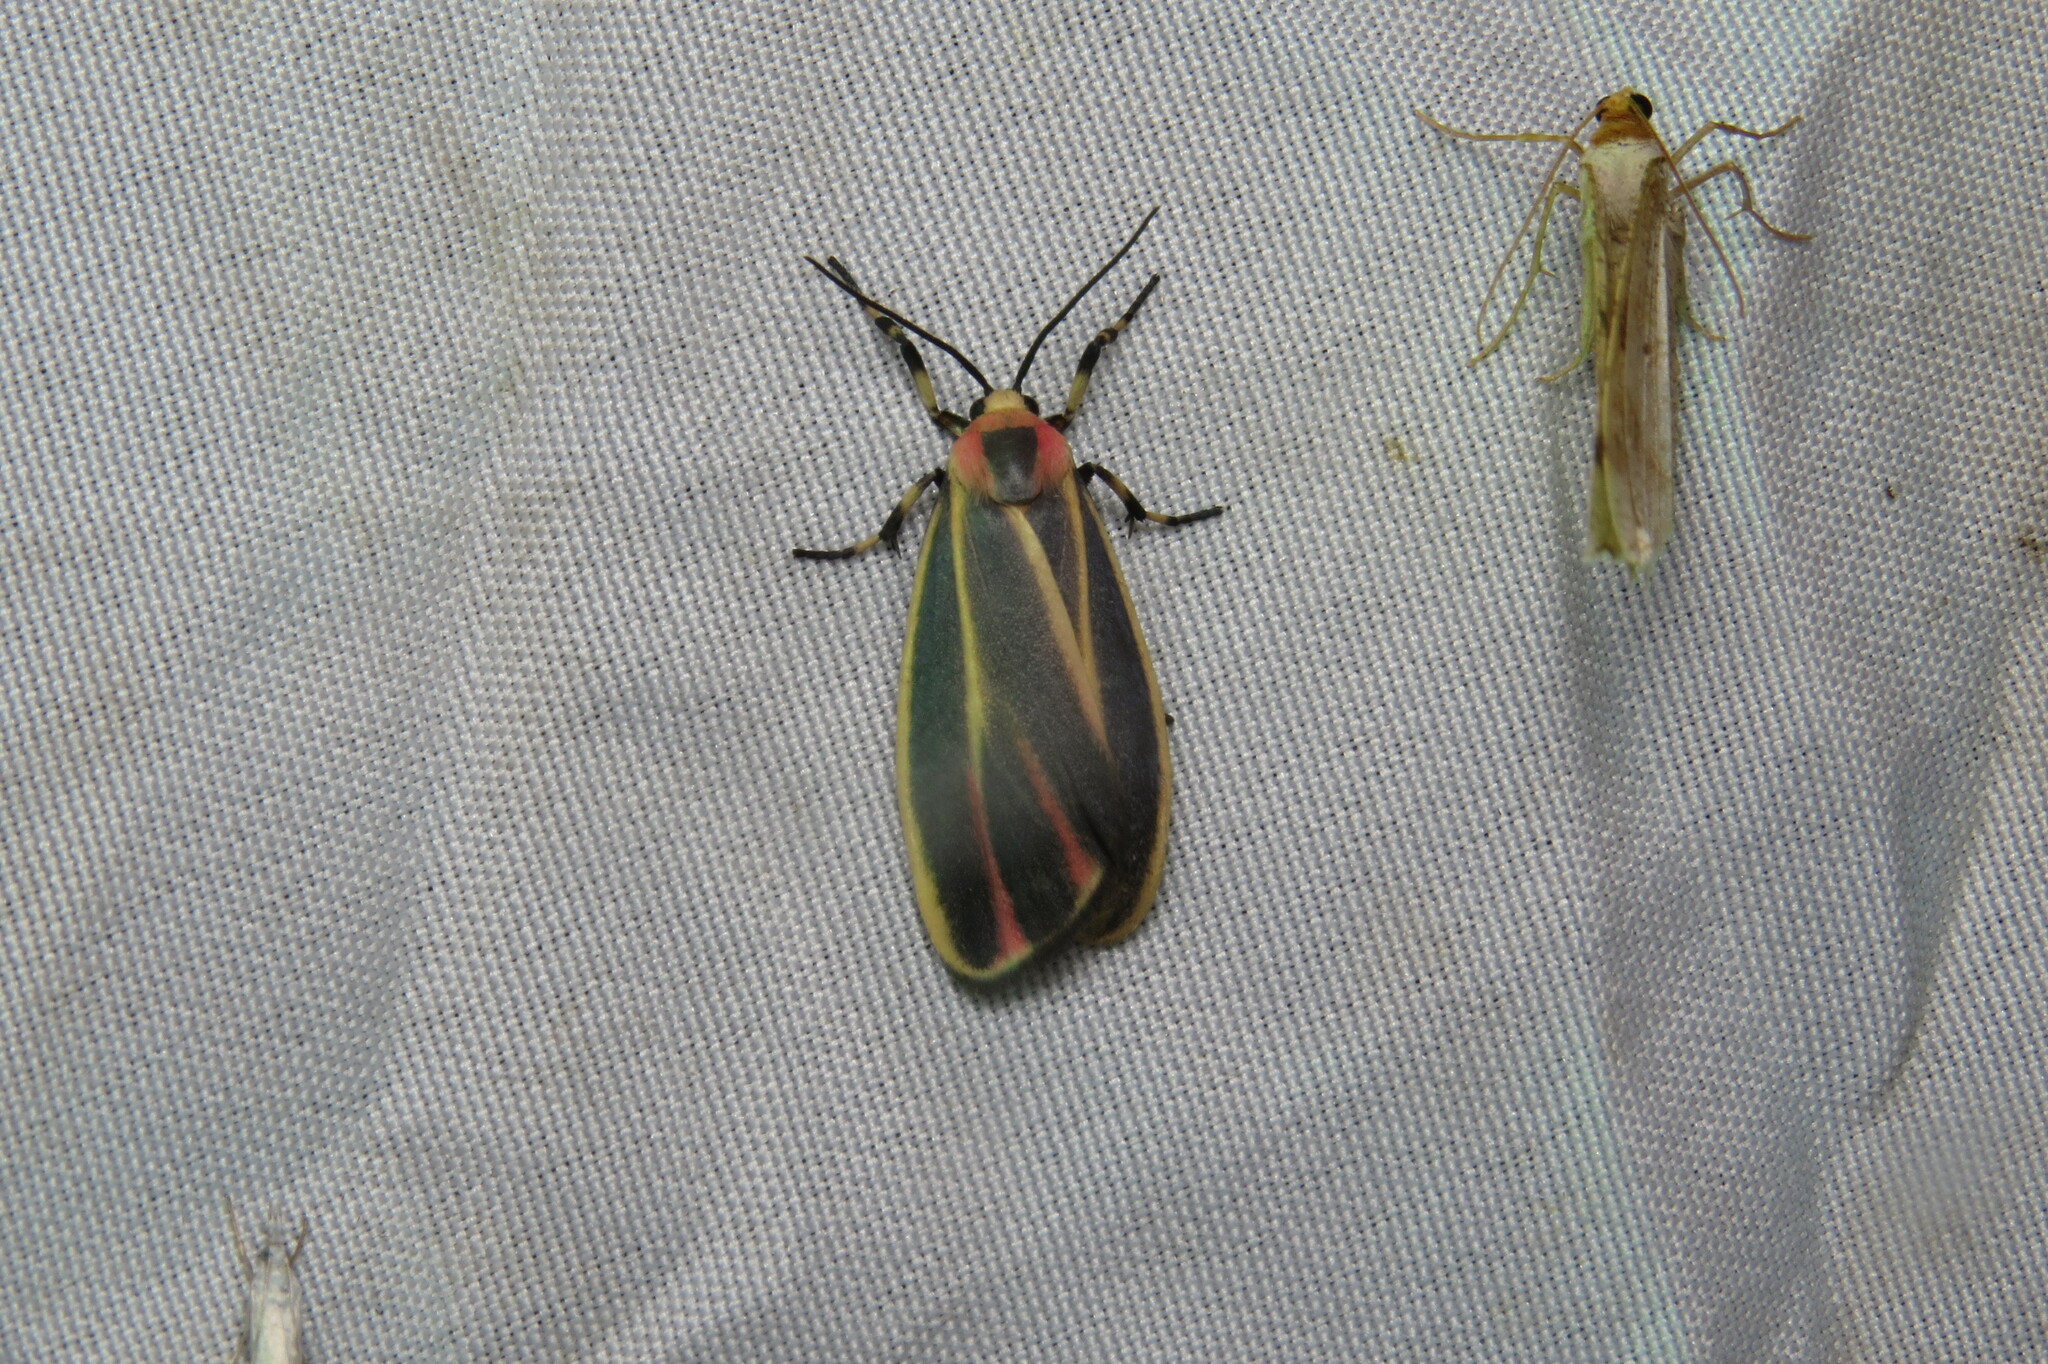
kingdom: Animalia
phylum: Arthropoda
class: Insecta
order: Lepidoptera
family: Erebidae
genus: Hypoprepia
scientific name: Hypoprepia fucosa
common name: Painted lichen moth
